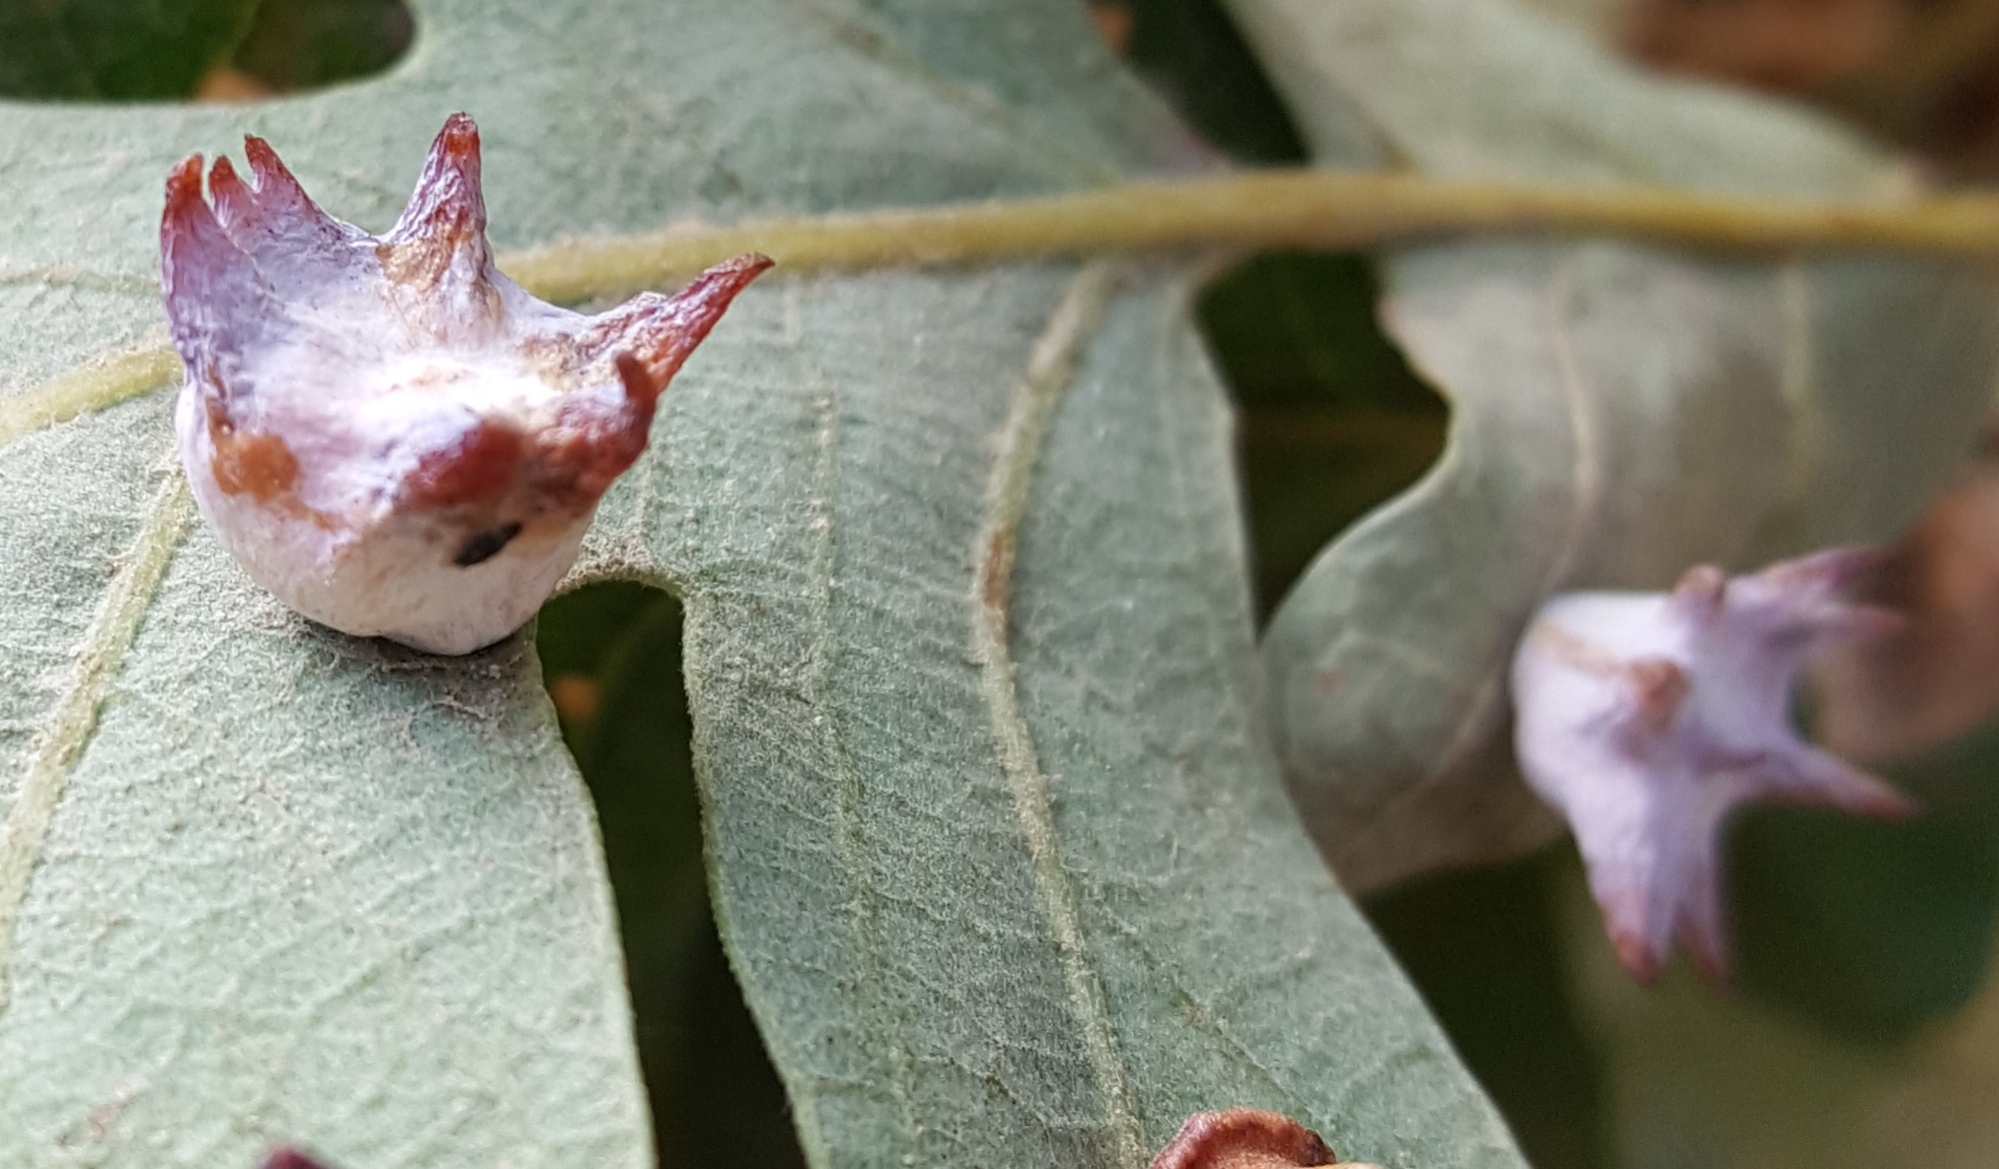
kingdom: Animalia
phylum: Arthropoda
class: Insecta
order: Hymenoptera
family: Cynipidae
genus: Cynips
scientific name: Cynips douglasi
